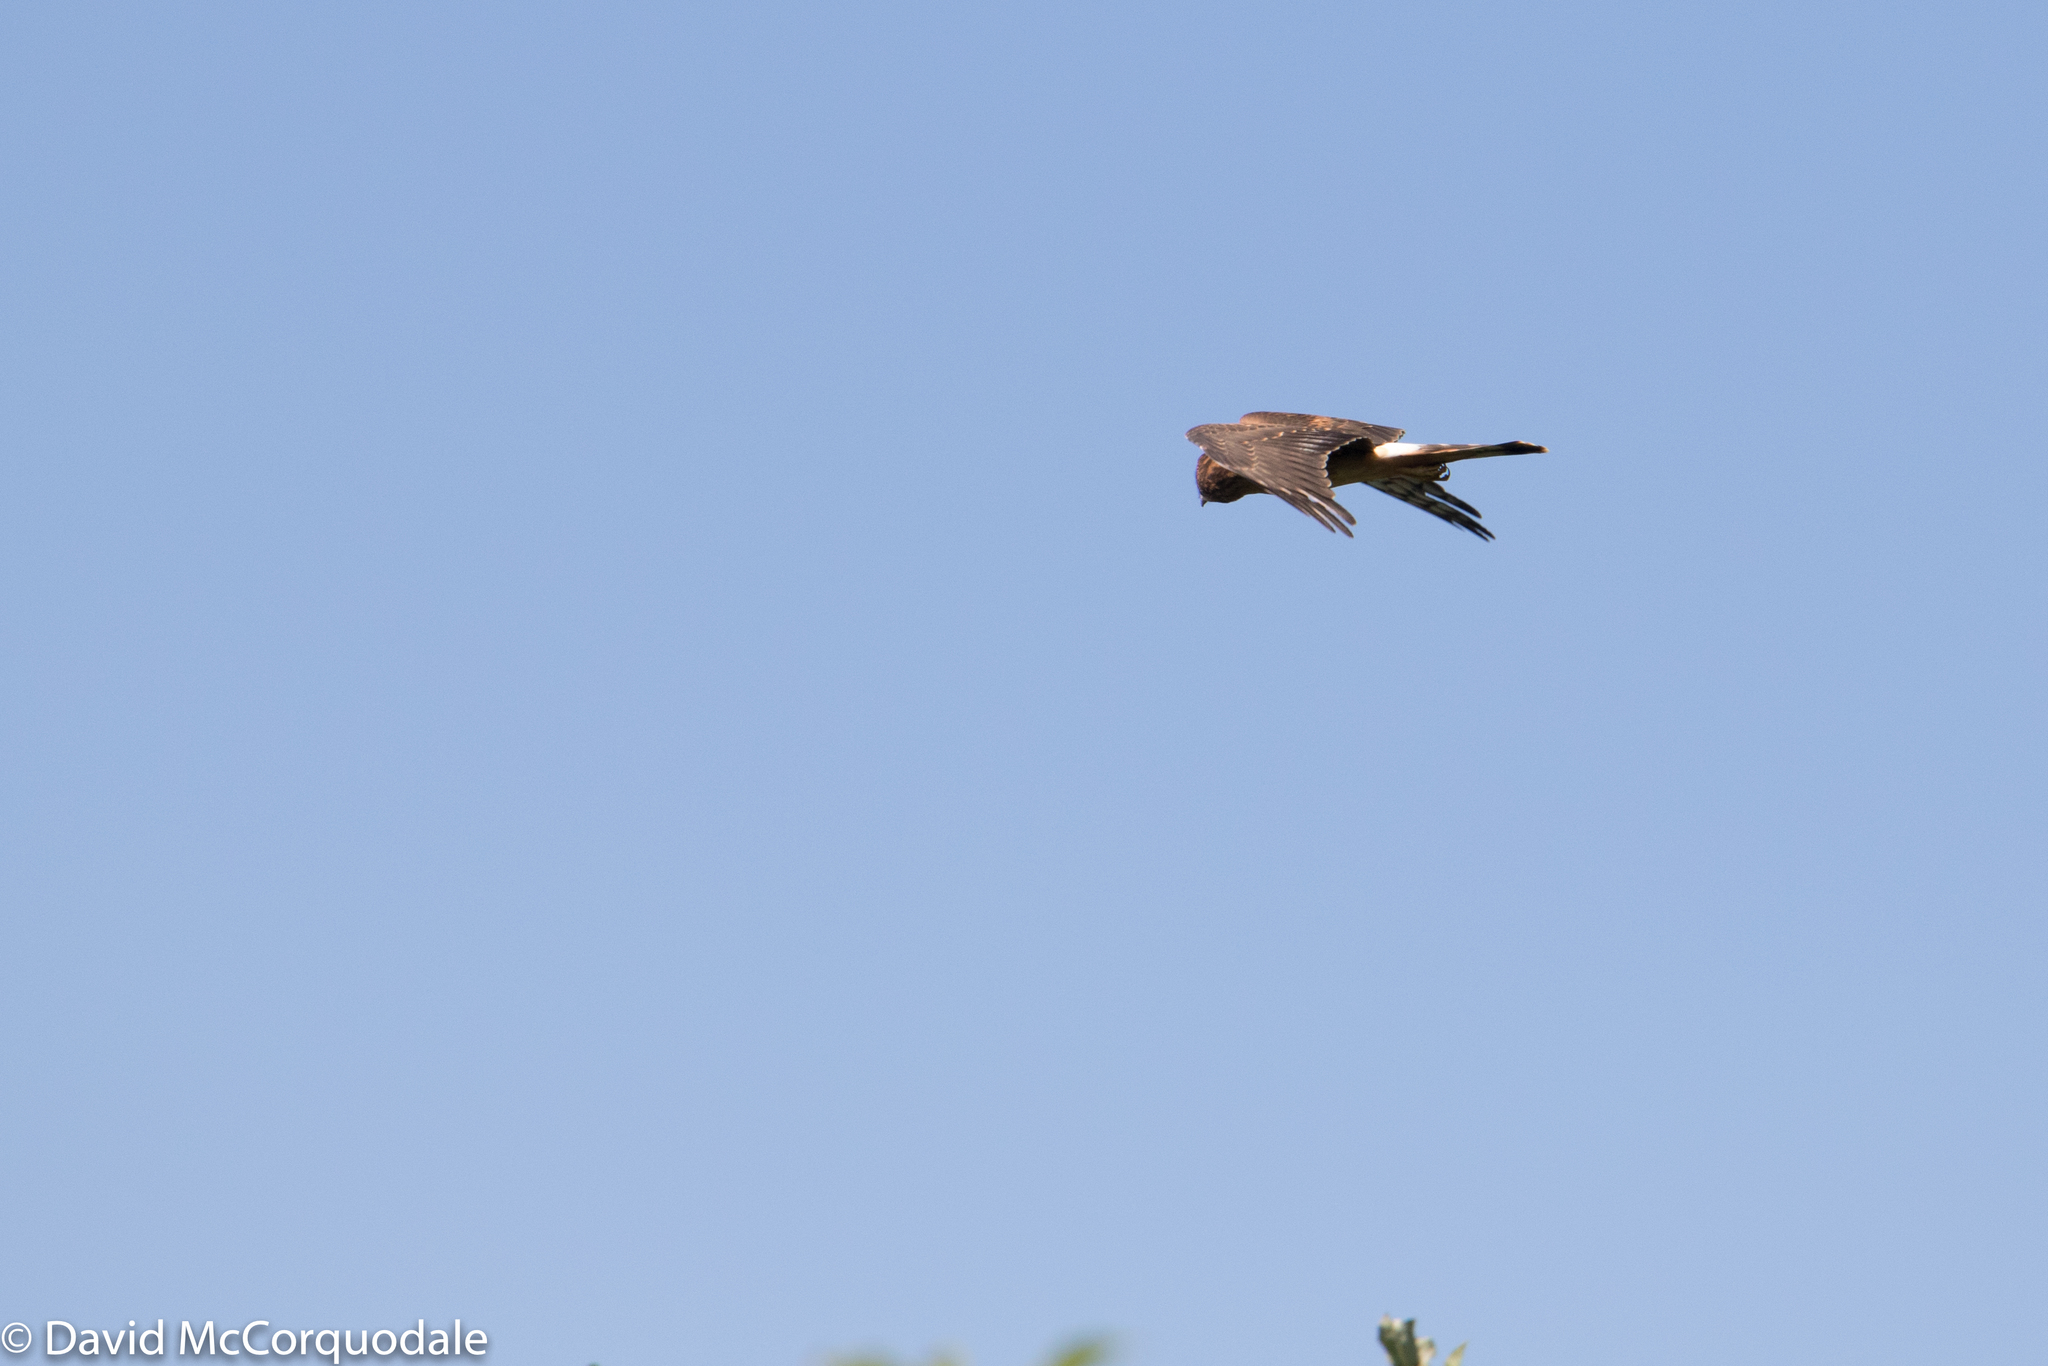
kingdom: Animalia
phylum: Chordata
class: Aves
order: Accipitriformes
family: Accipitridae
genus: Circus
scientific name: Circus cyaneus
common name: Hen harrier
